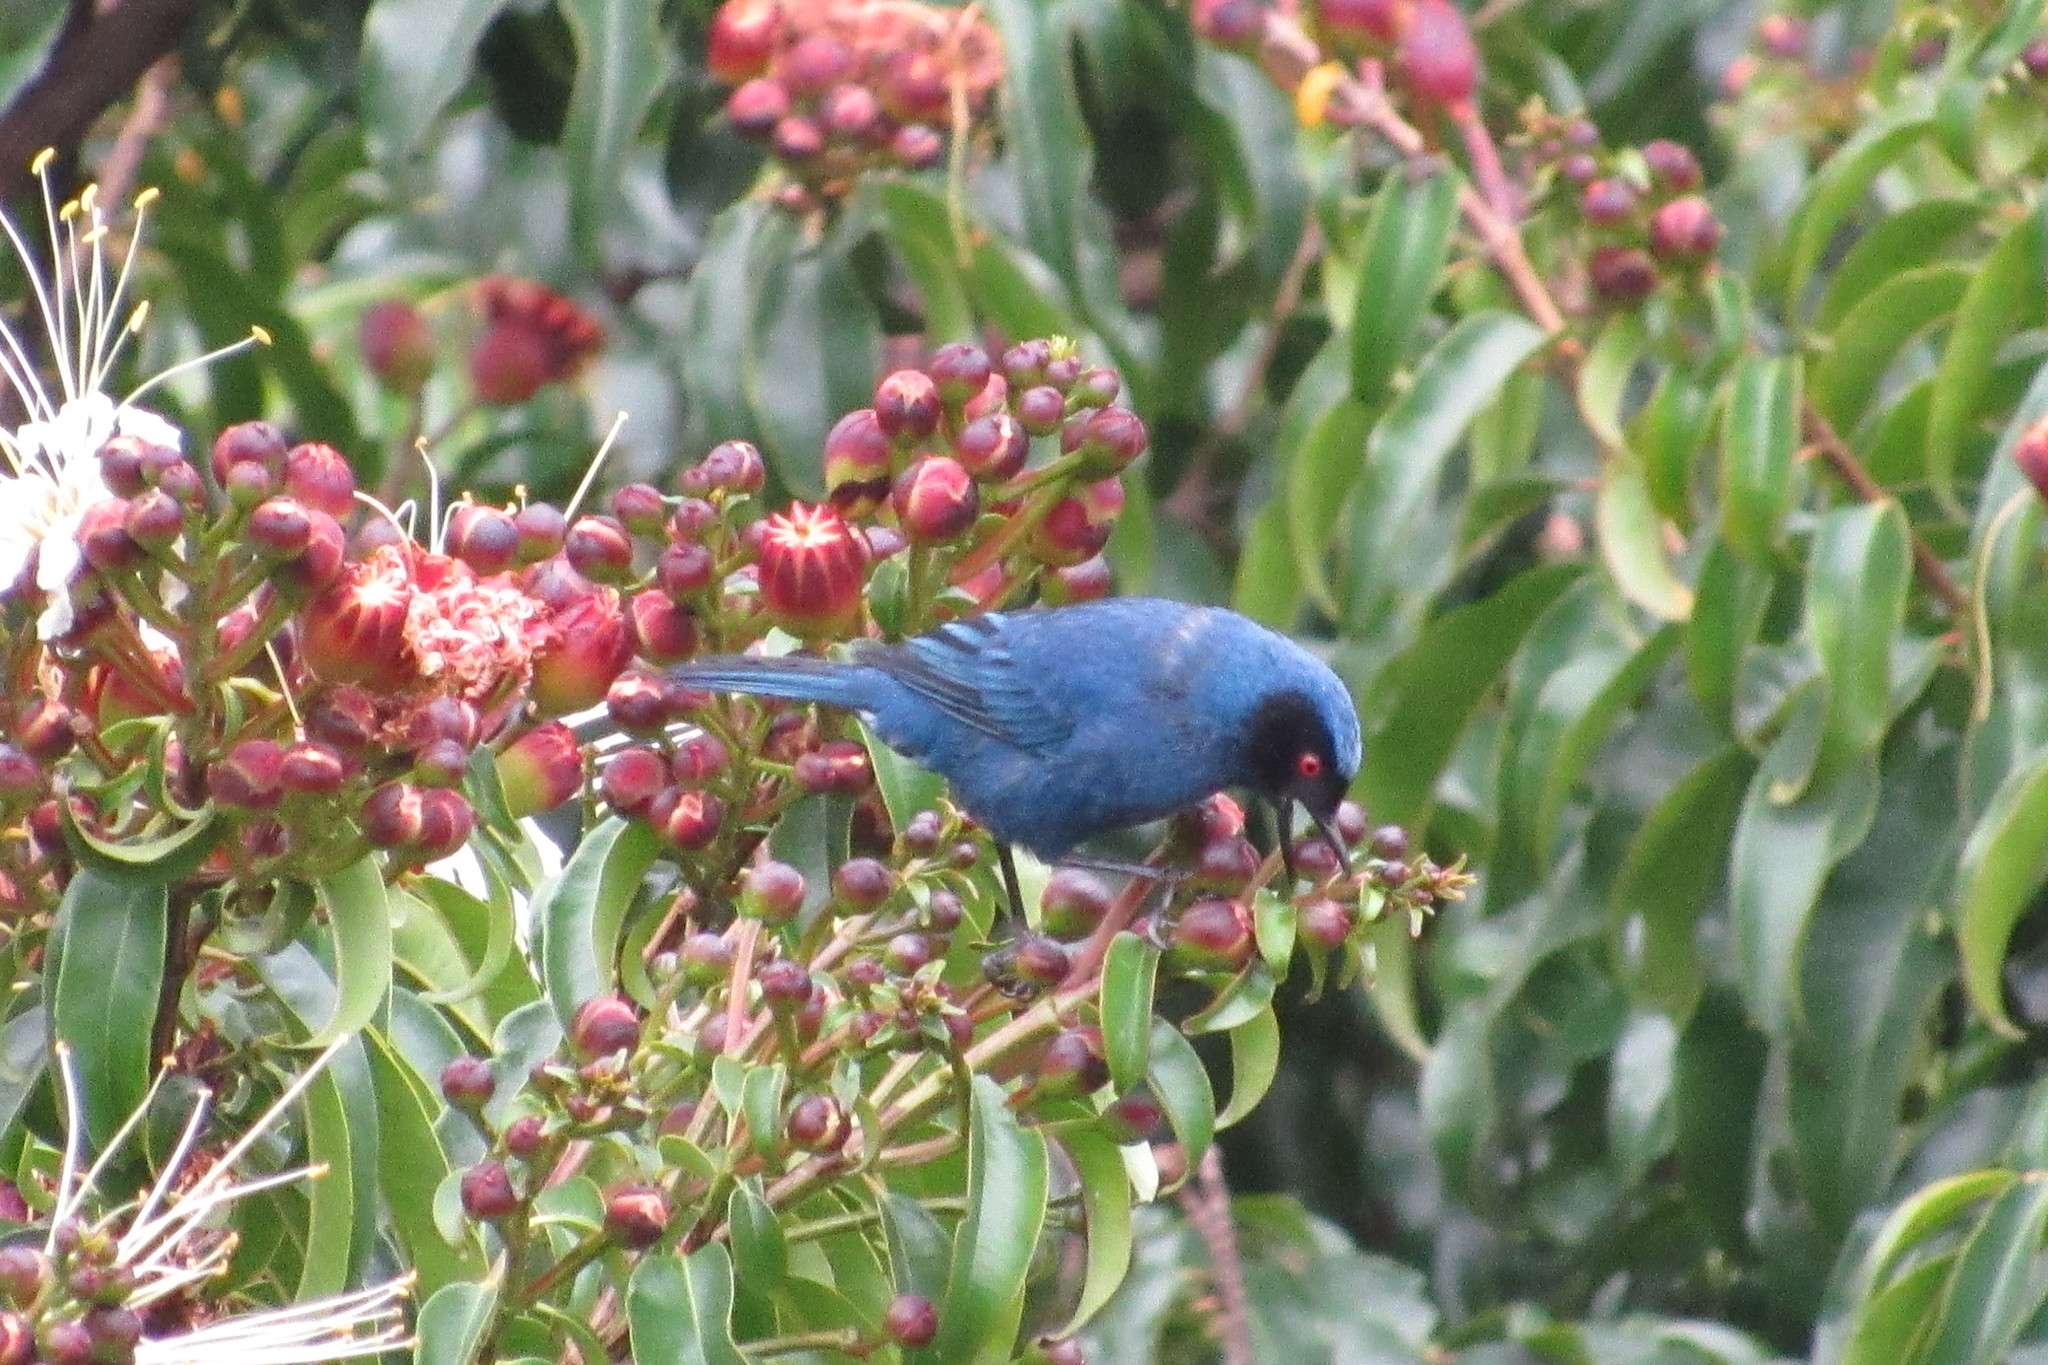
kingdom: Animalia
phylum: Chordata
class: Aves
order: Passeriformes
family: Thraupidae
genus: Diglossa
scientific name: Diglossa cyanea
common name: Masked flowerpiercer
